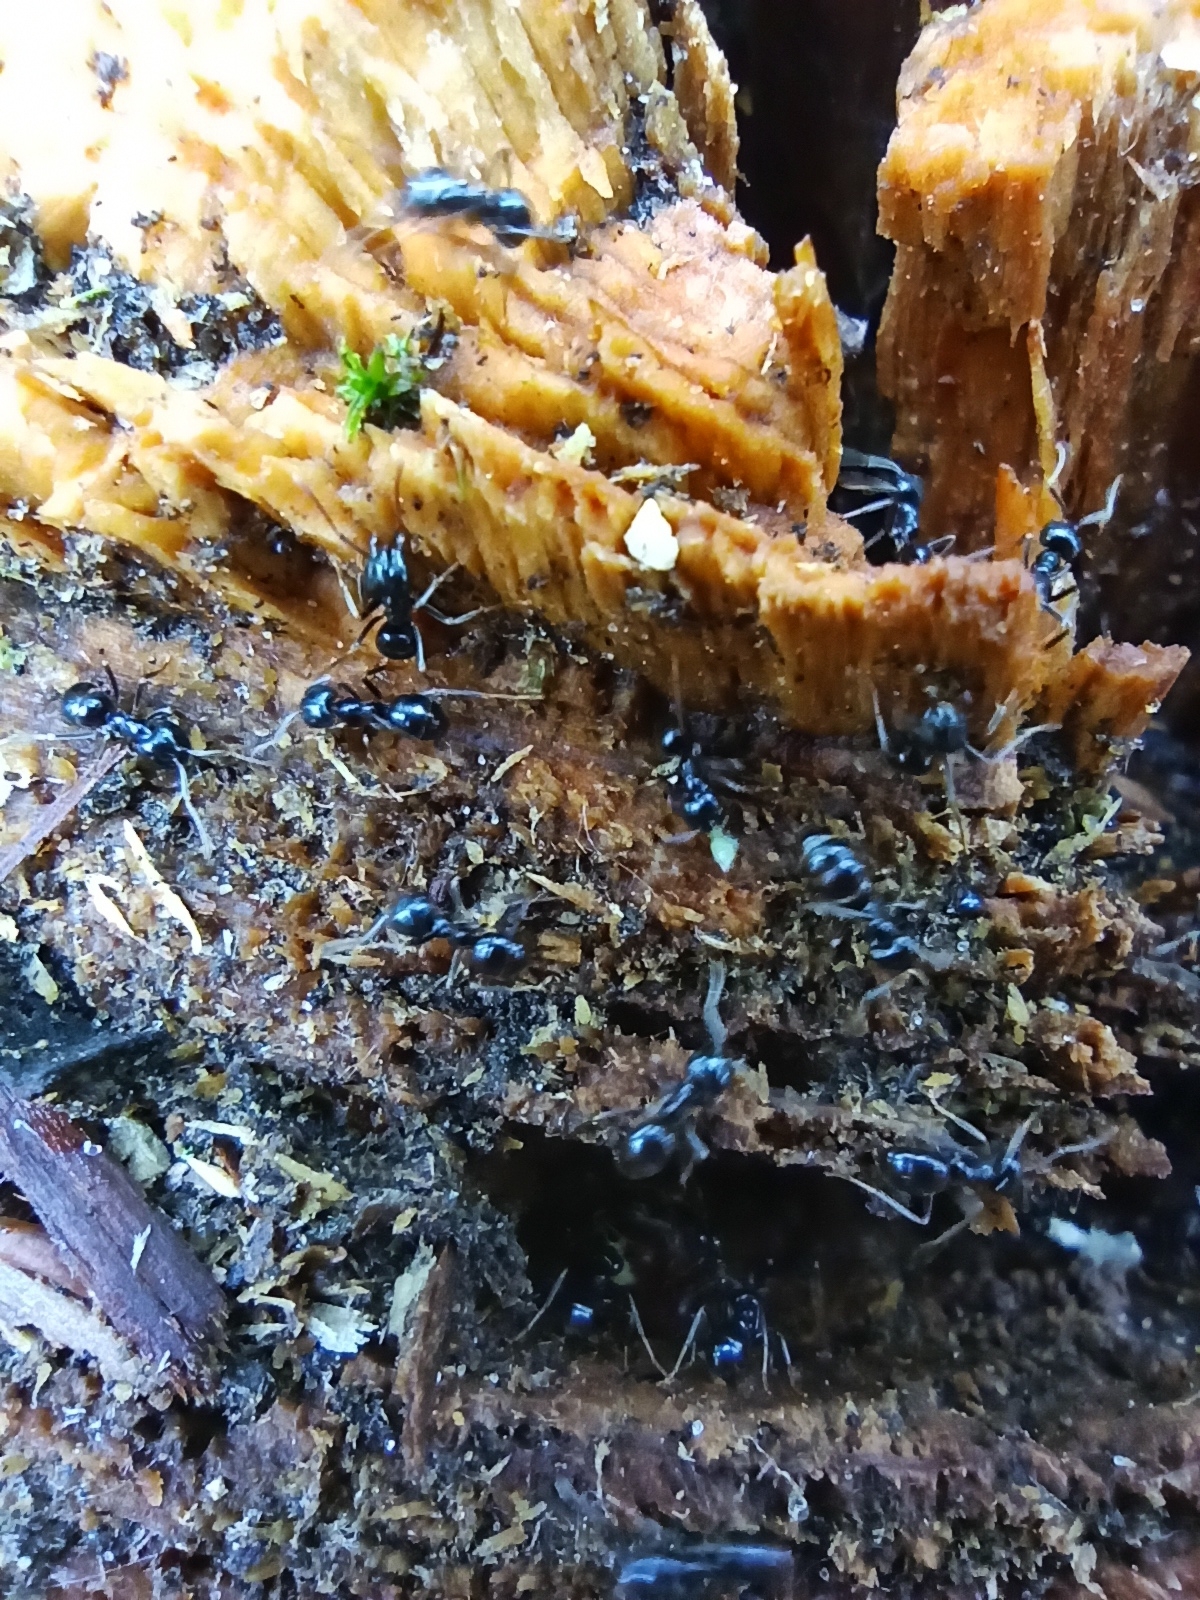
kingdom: Animalia
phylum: Arthropoda
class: Insecta
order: Hymenoptera
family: Formicidae
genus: Lasius
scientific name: Lasius fuliginosus
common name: Jet ant
